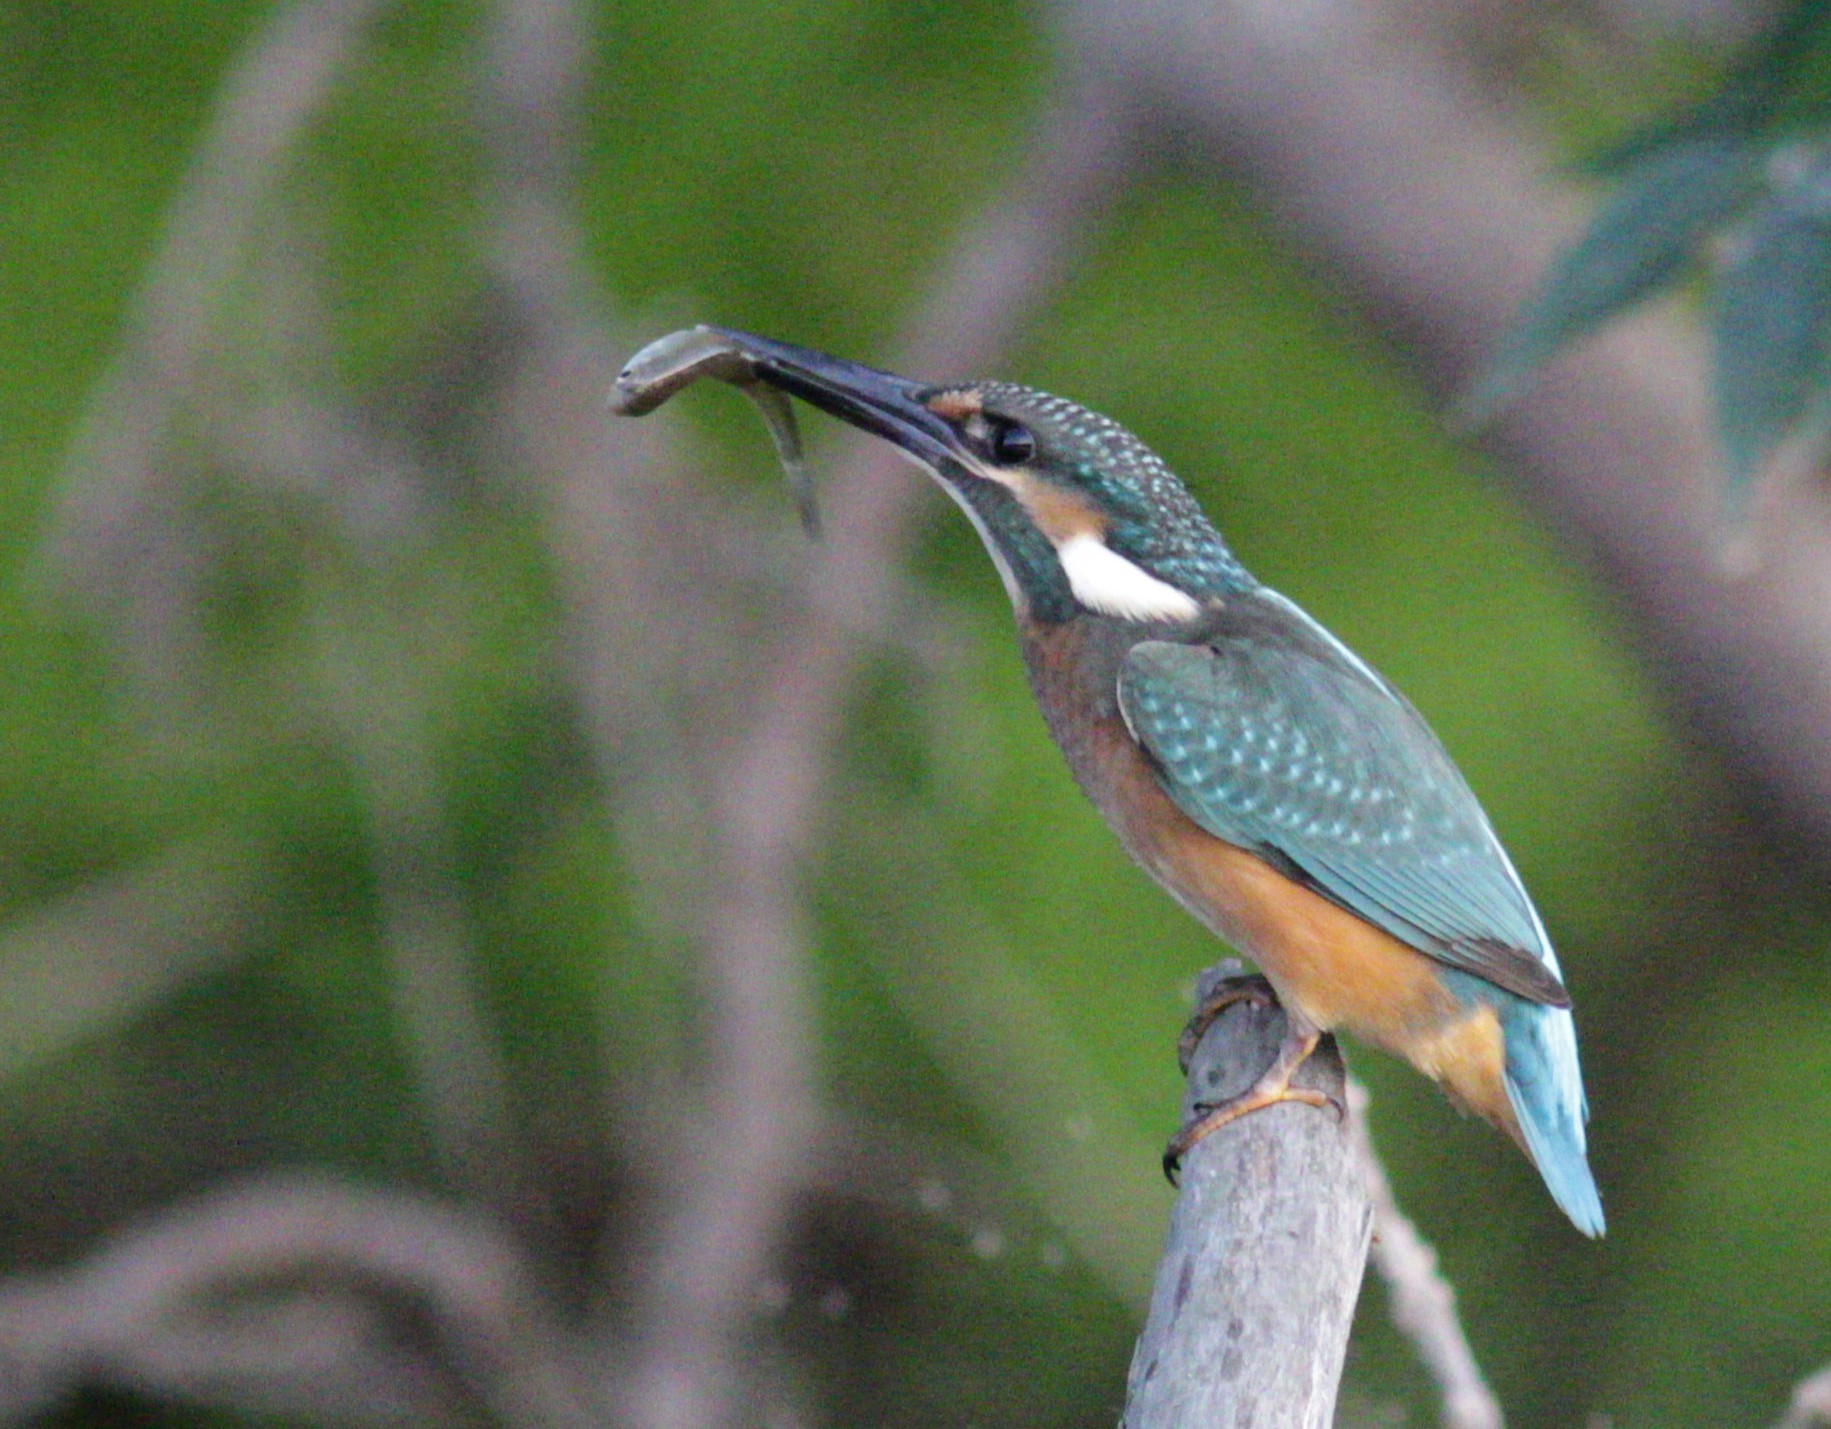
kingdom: Animalia
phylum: Chordata
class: Aves
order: Coraciiformes
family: Alcedinidae
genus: Alcedo
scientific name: Alcedo atthis
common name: Common kingfisher
